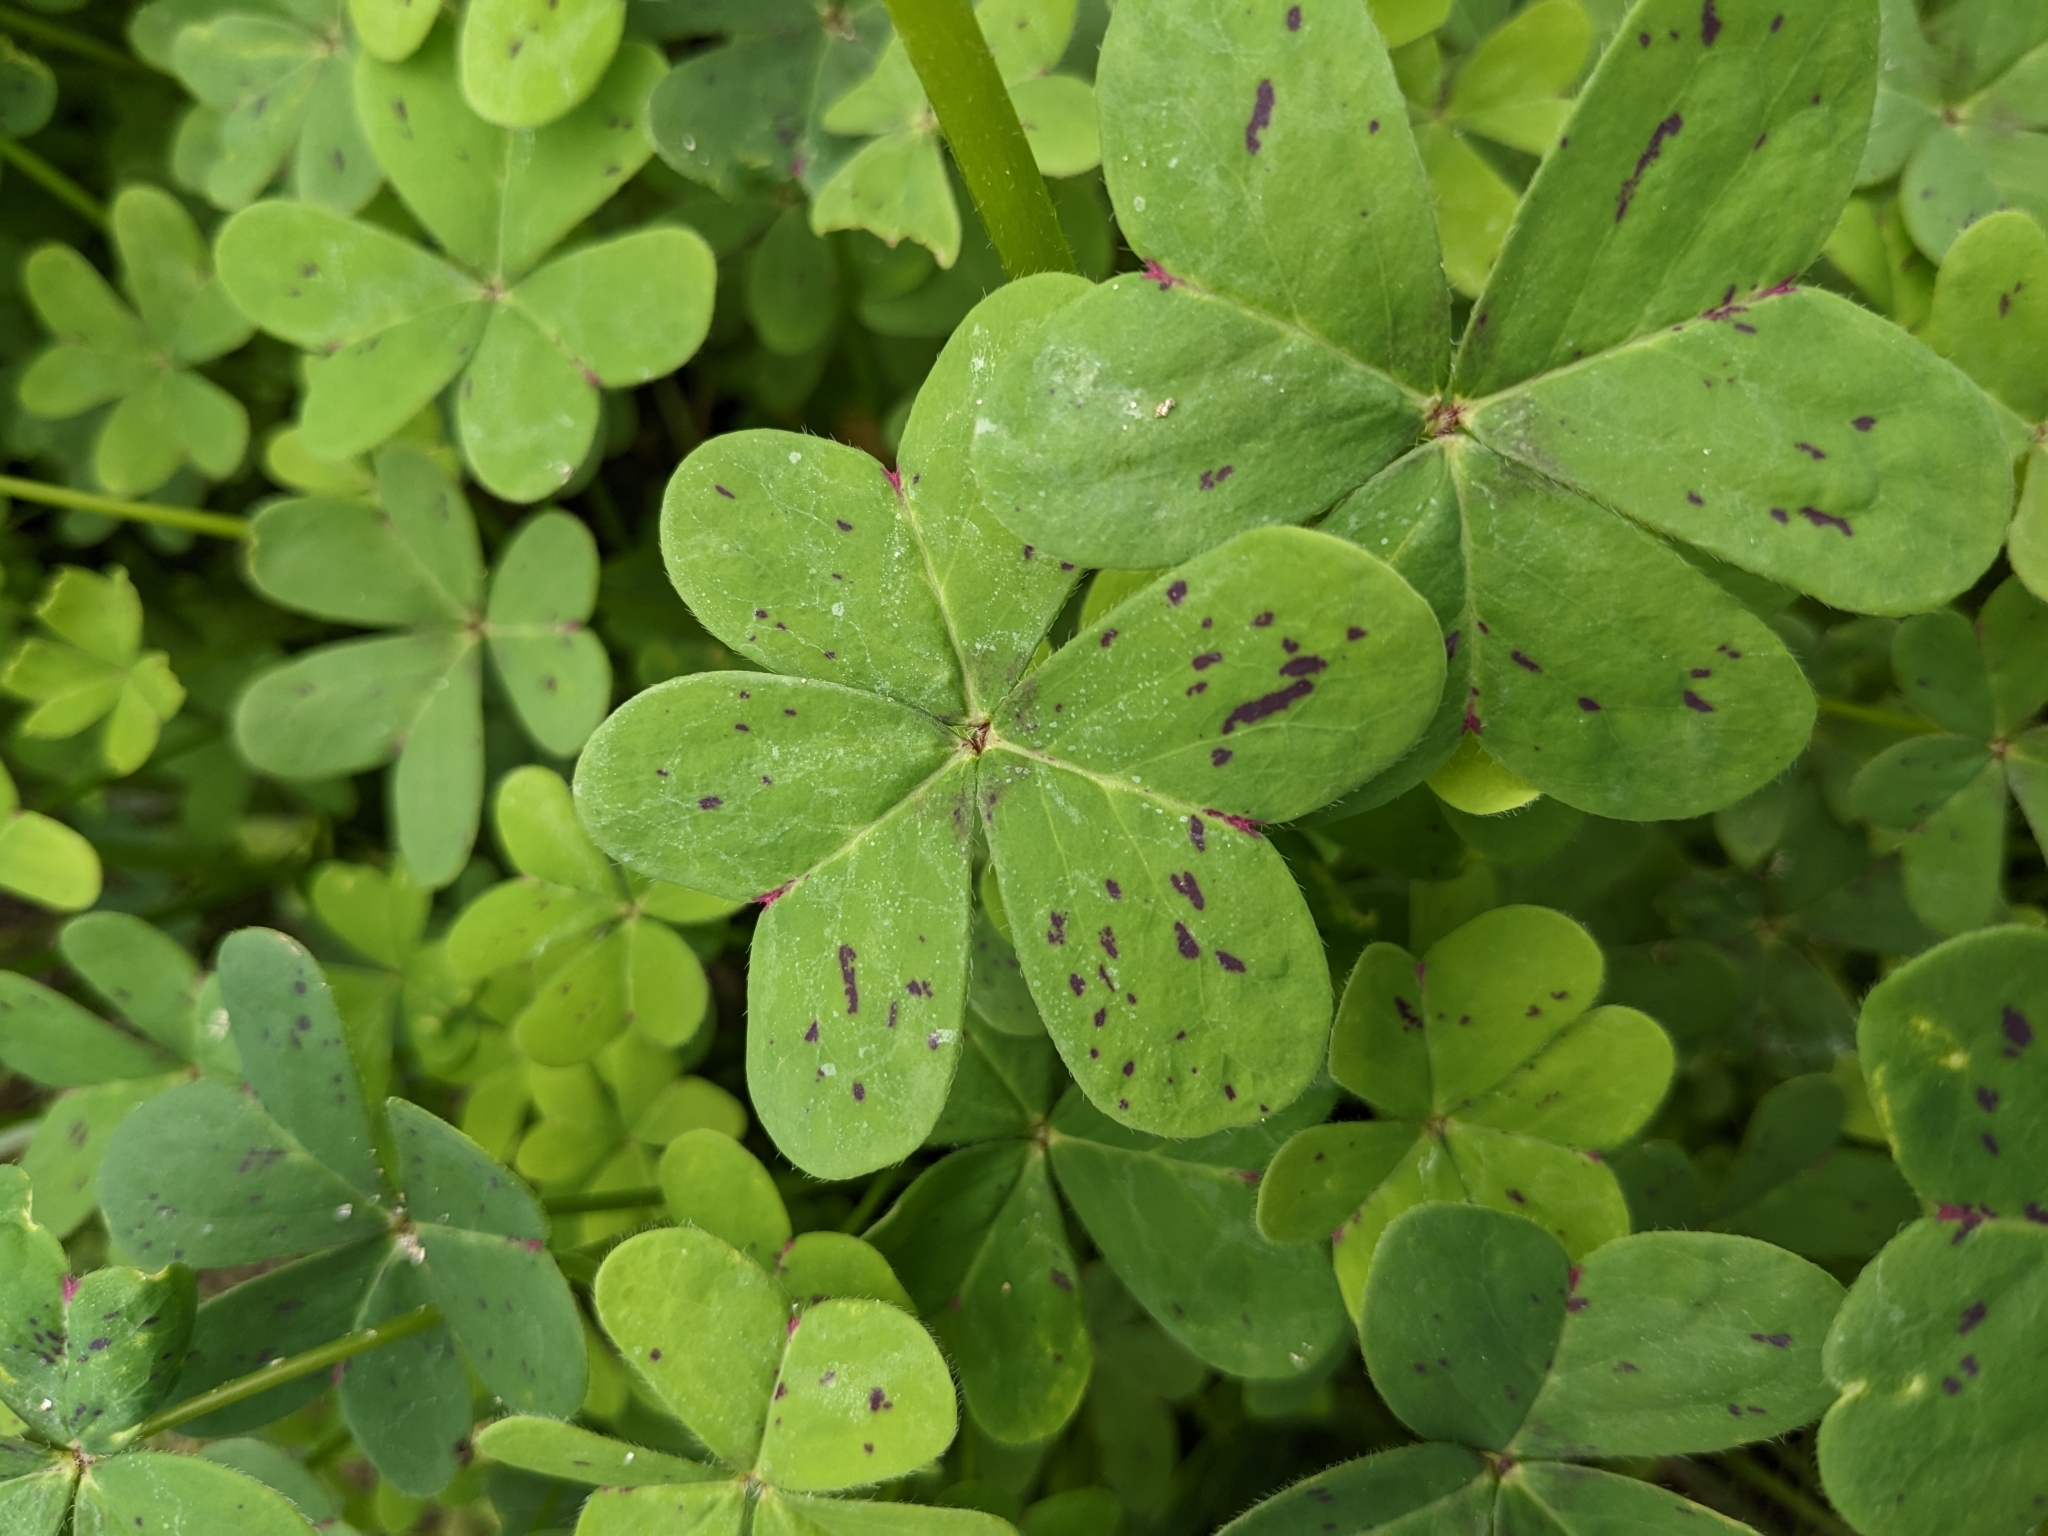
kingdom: Plantae
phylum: Tracheophyta
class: Magnoliopsida
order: Oxalidales
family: Oxalidaceae
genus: Oxalis
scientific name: Oxalis pes-caprae
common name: Bermuda-buttercup
